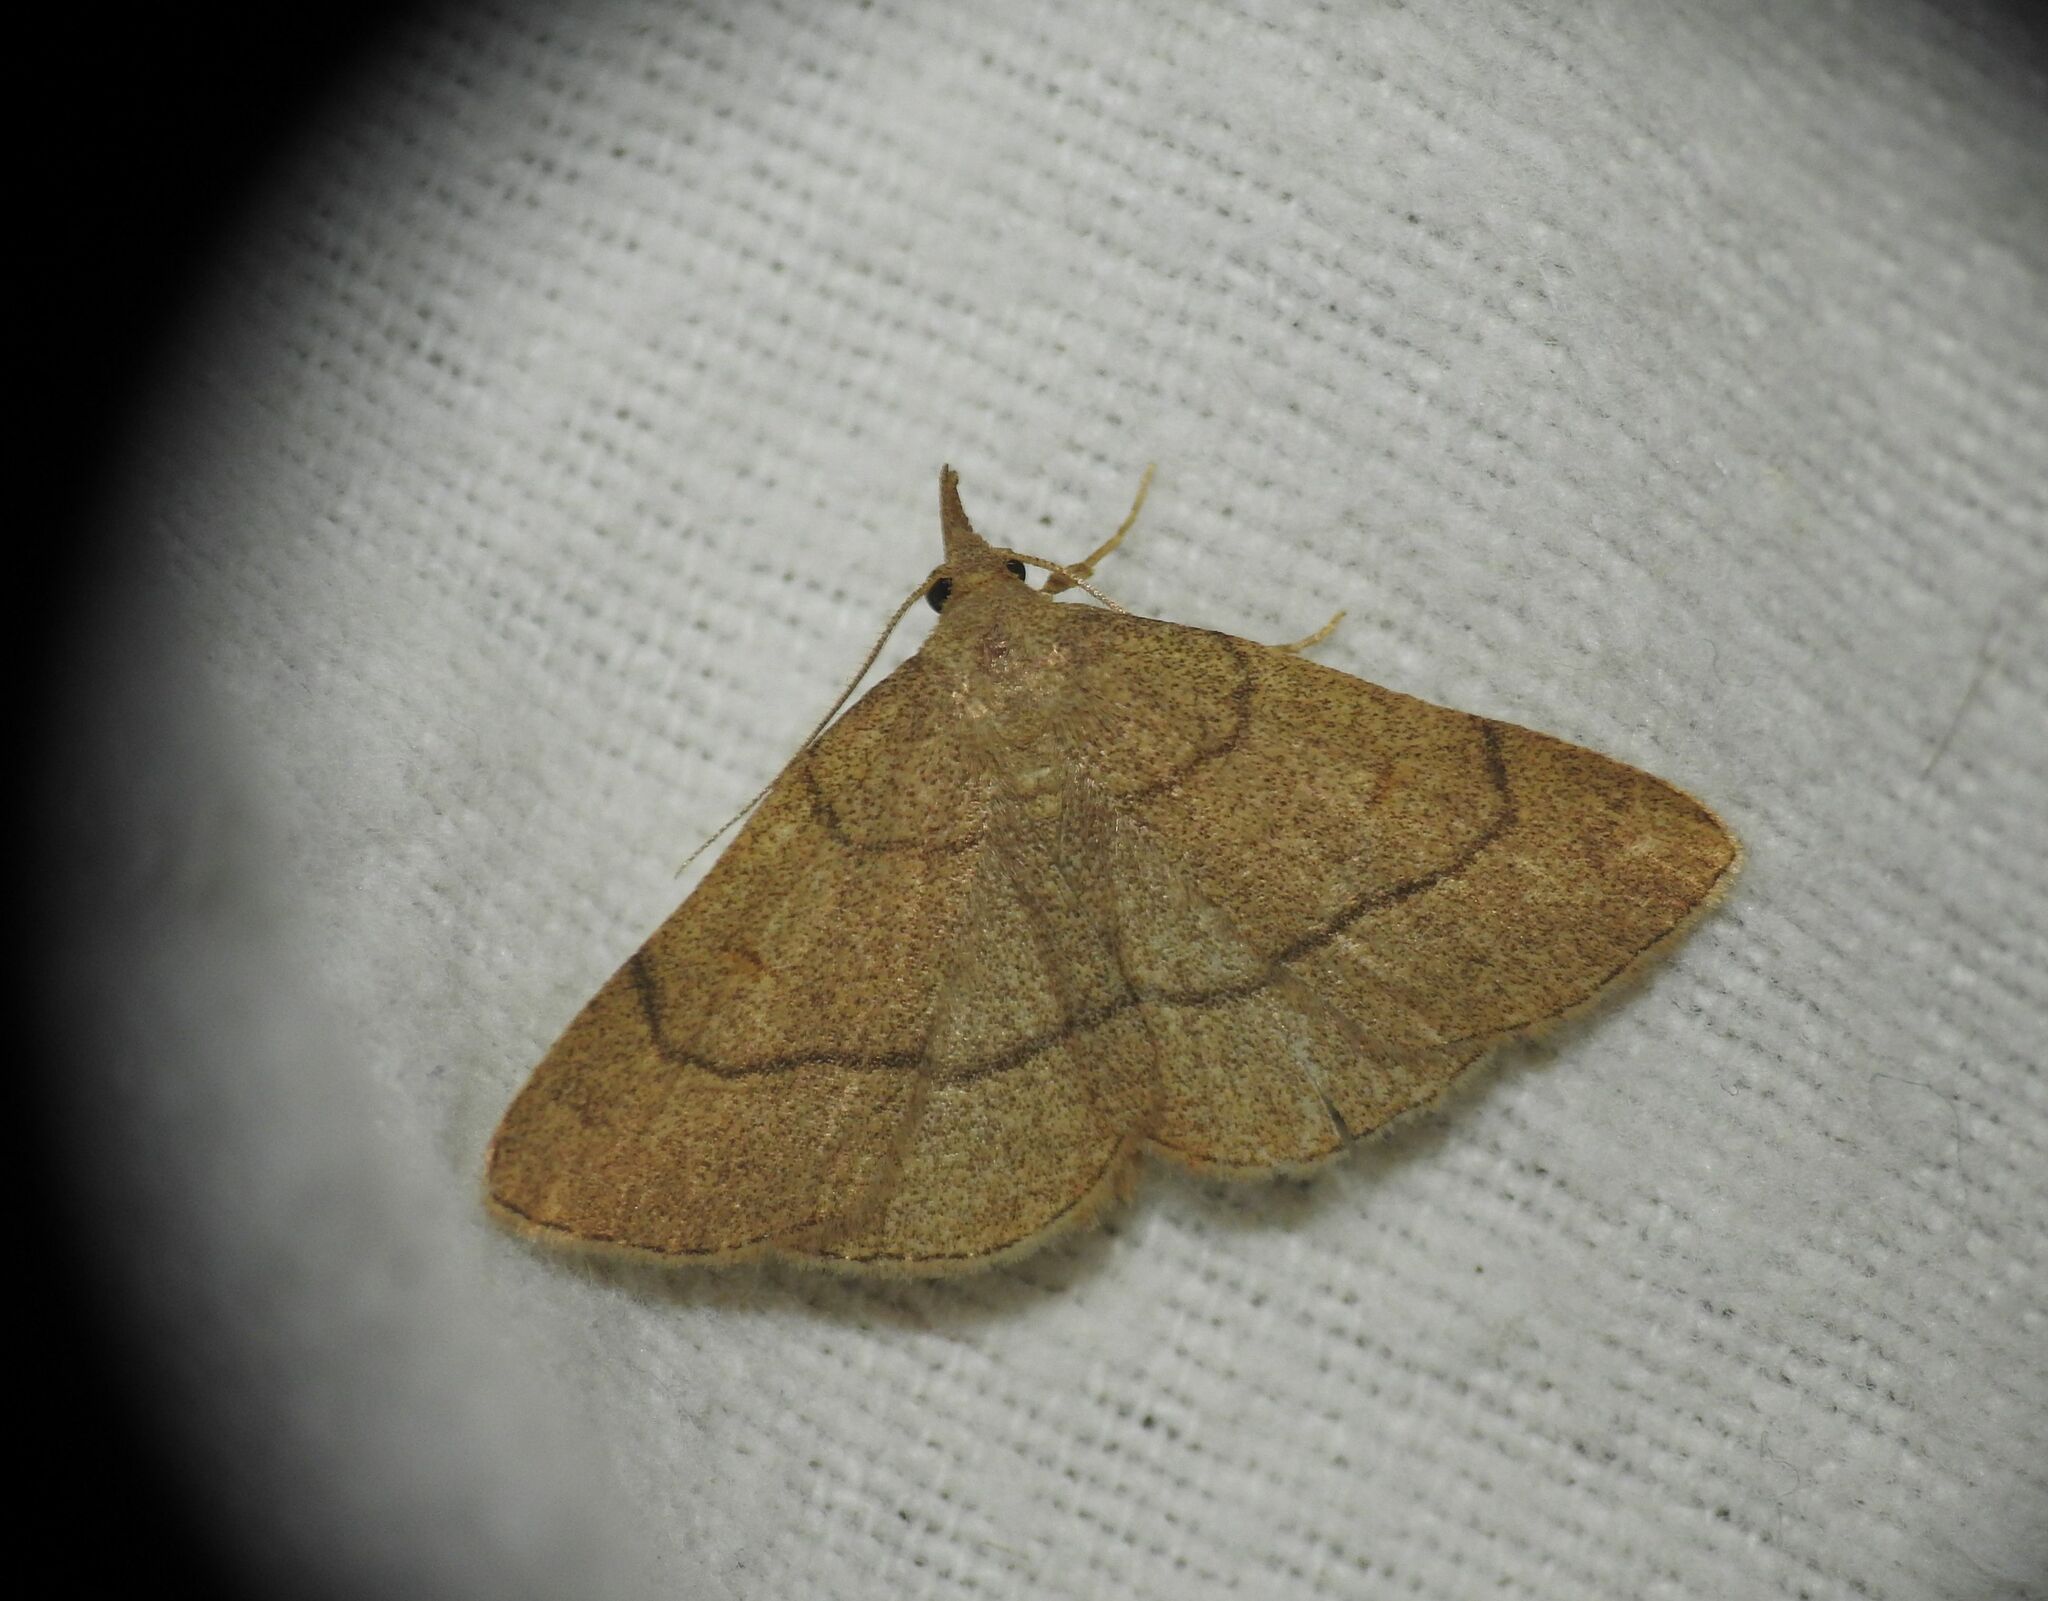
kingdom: Animalia
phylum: Arthropoda
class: Insecta
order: Lepidoptera
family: Erebidae
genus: Paracolax
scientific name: Paracolax tristalis
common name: Clay fan-foot
